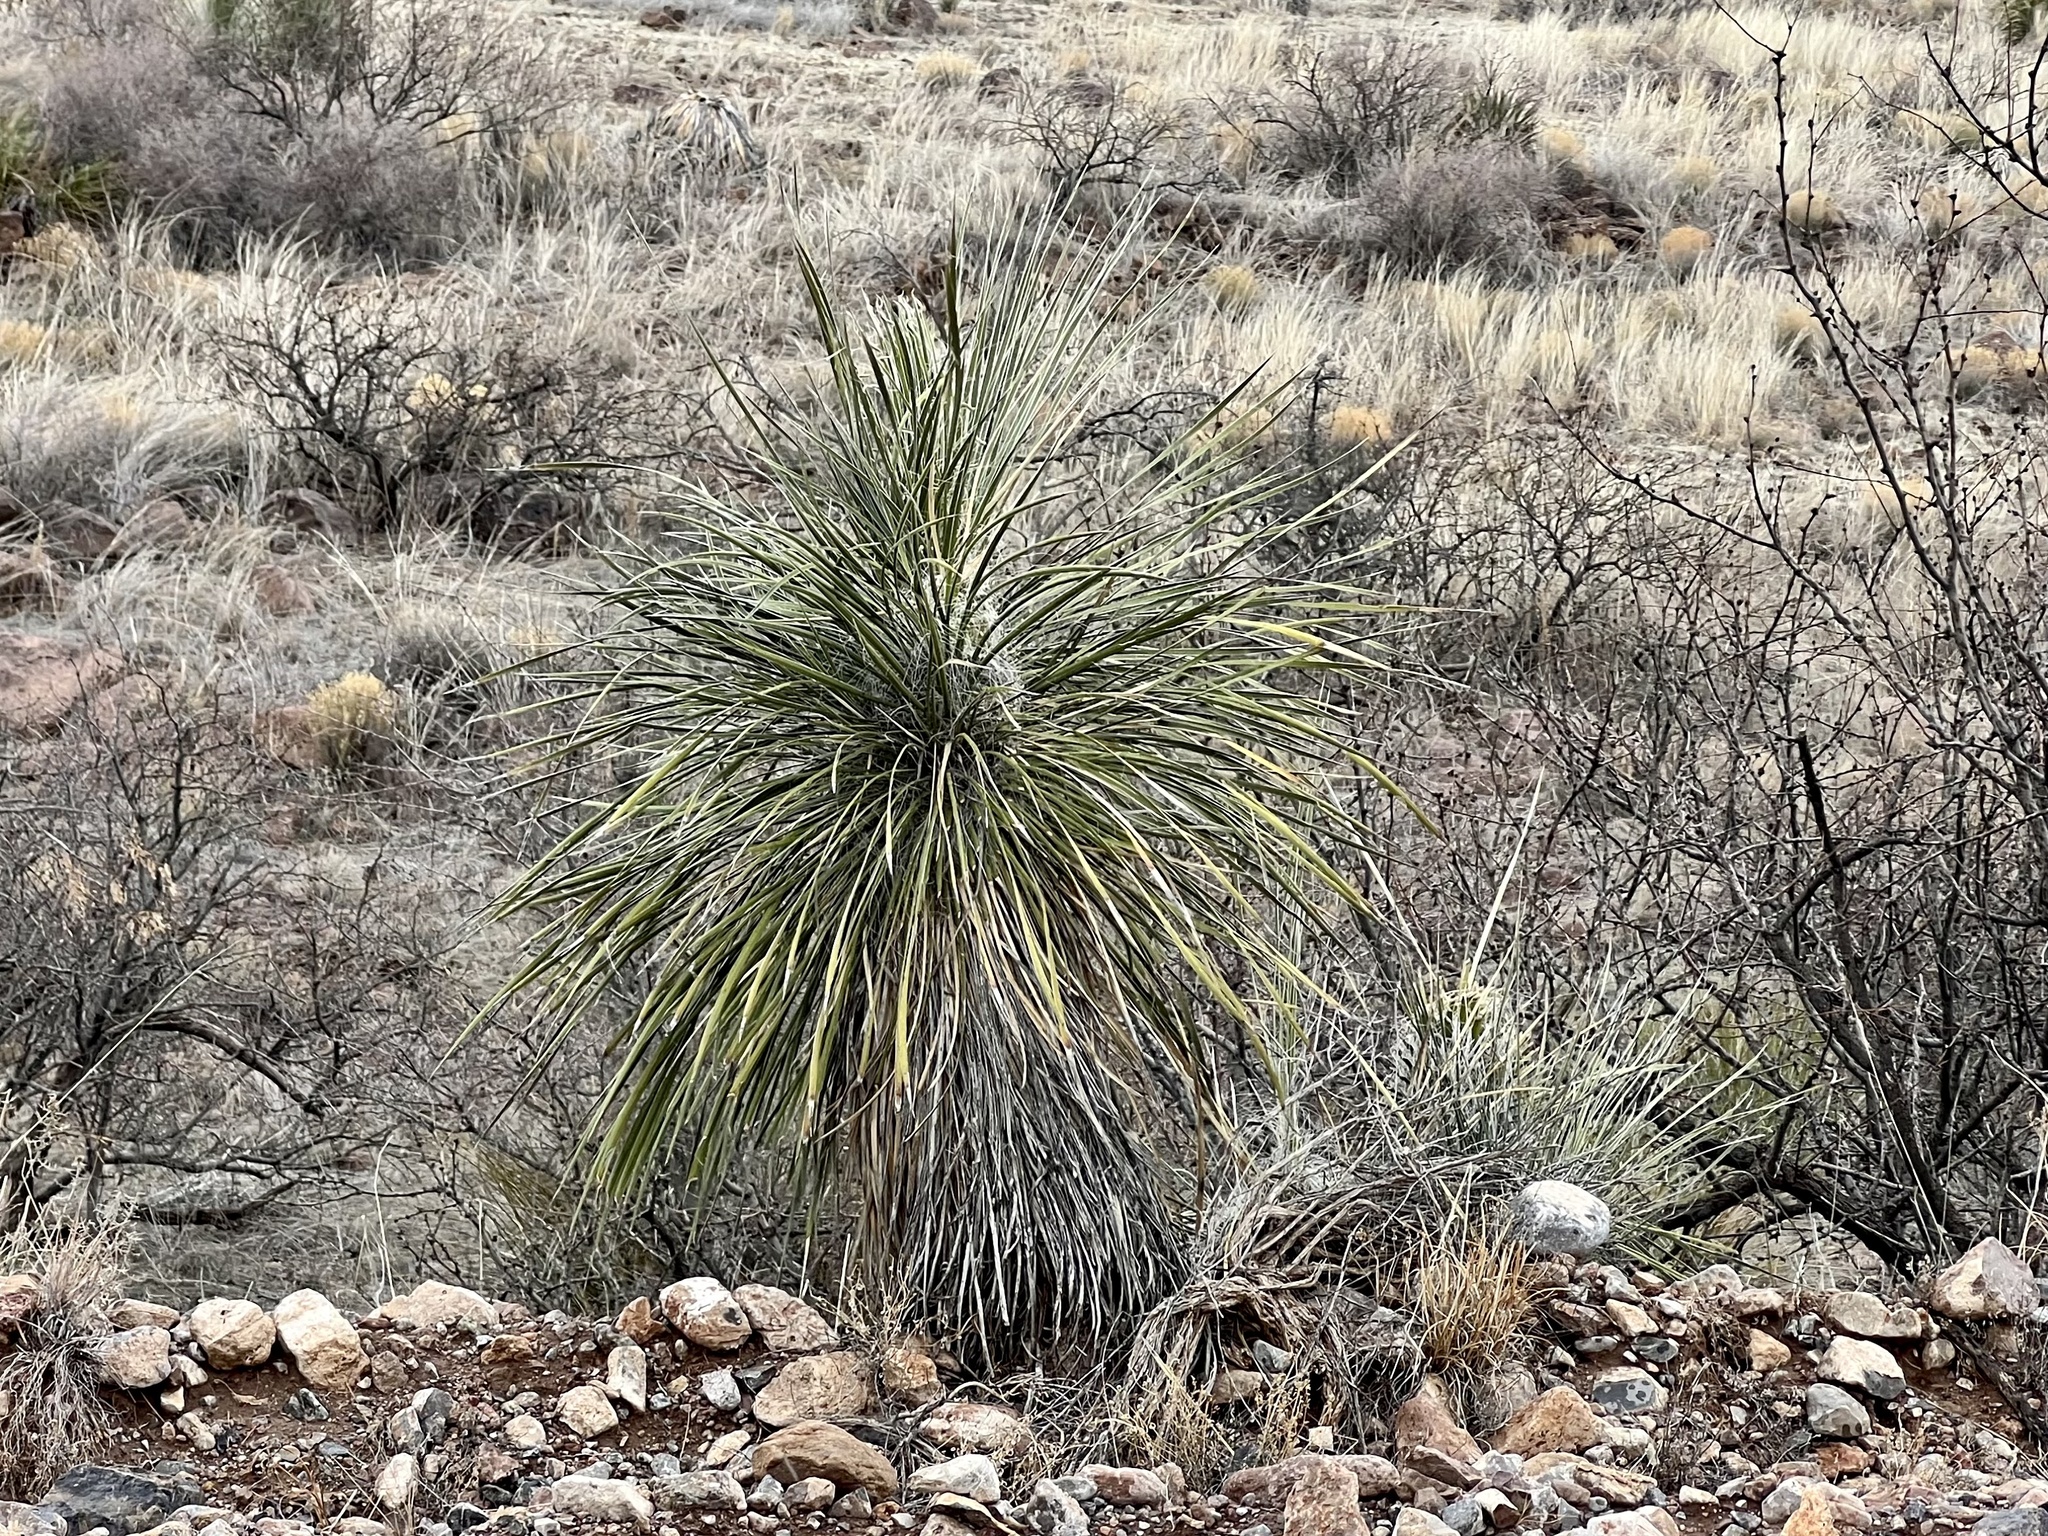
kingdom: Plantae
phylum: Tracheophyta
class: Liliopsida
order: Asparagales
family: Asparagaceae
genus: Yucca
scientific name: Yucca elata
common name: Palmella
